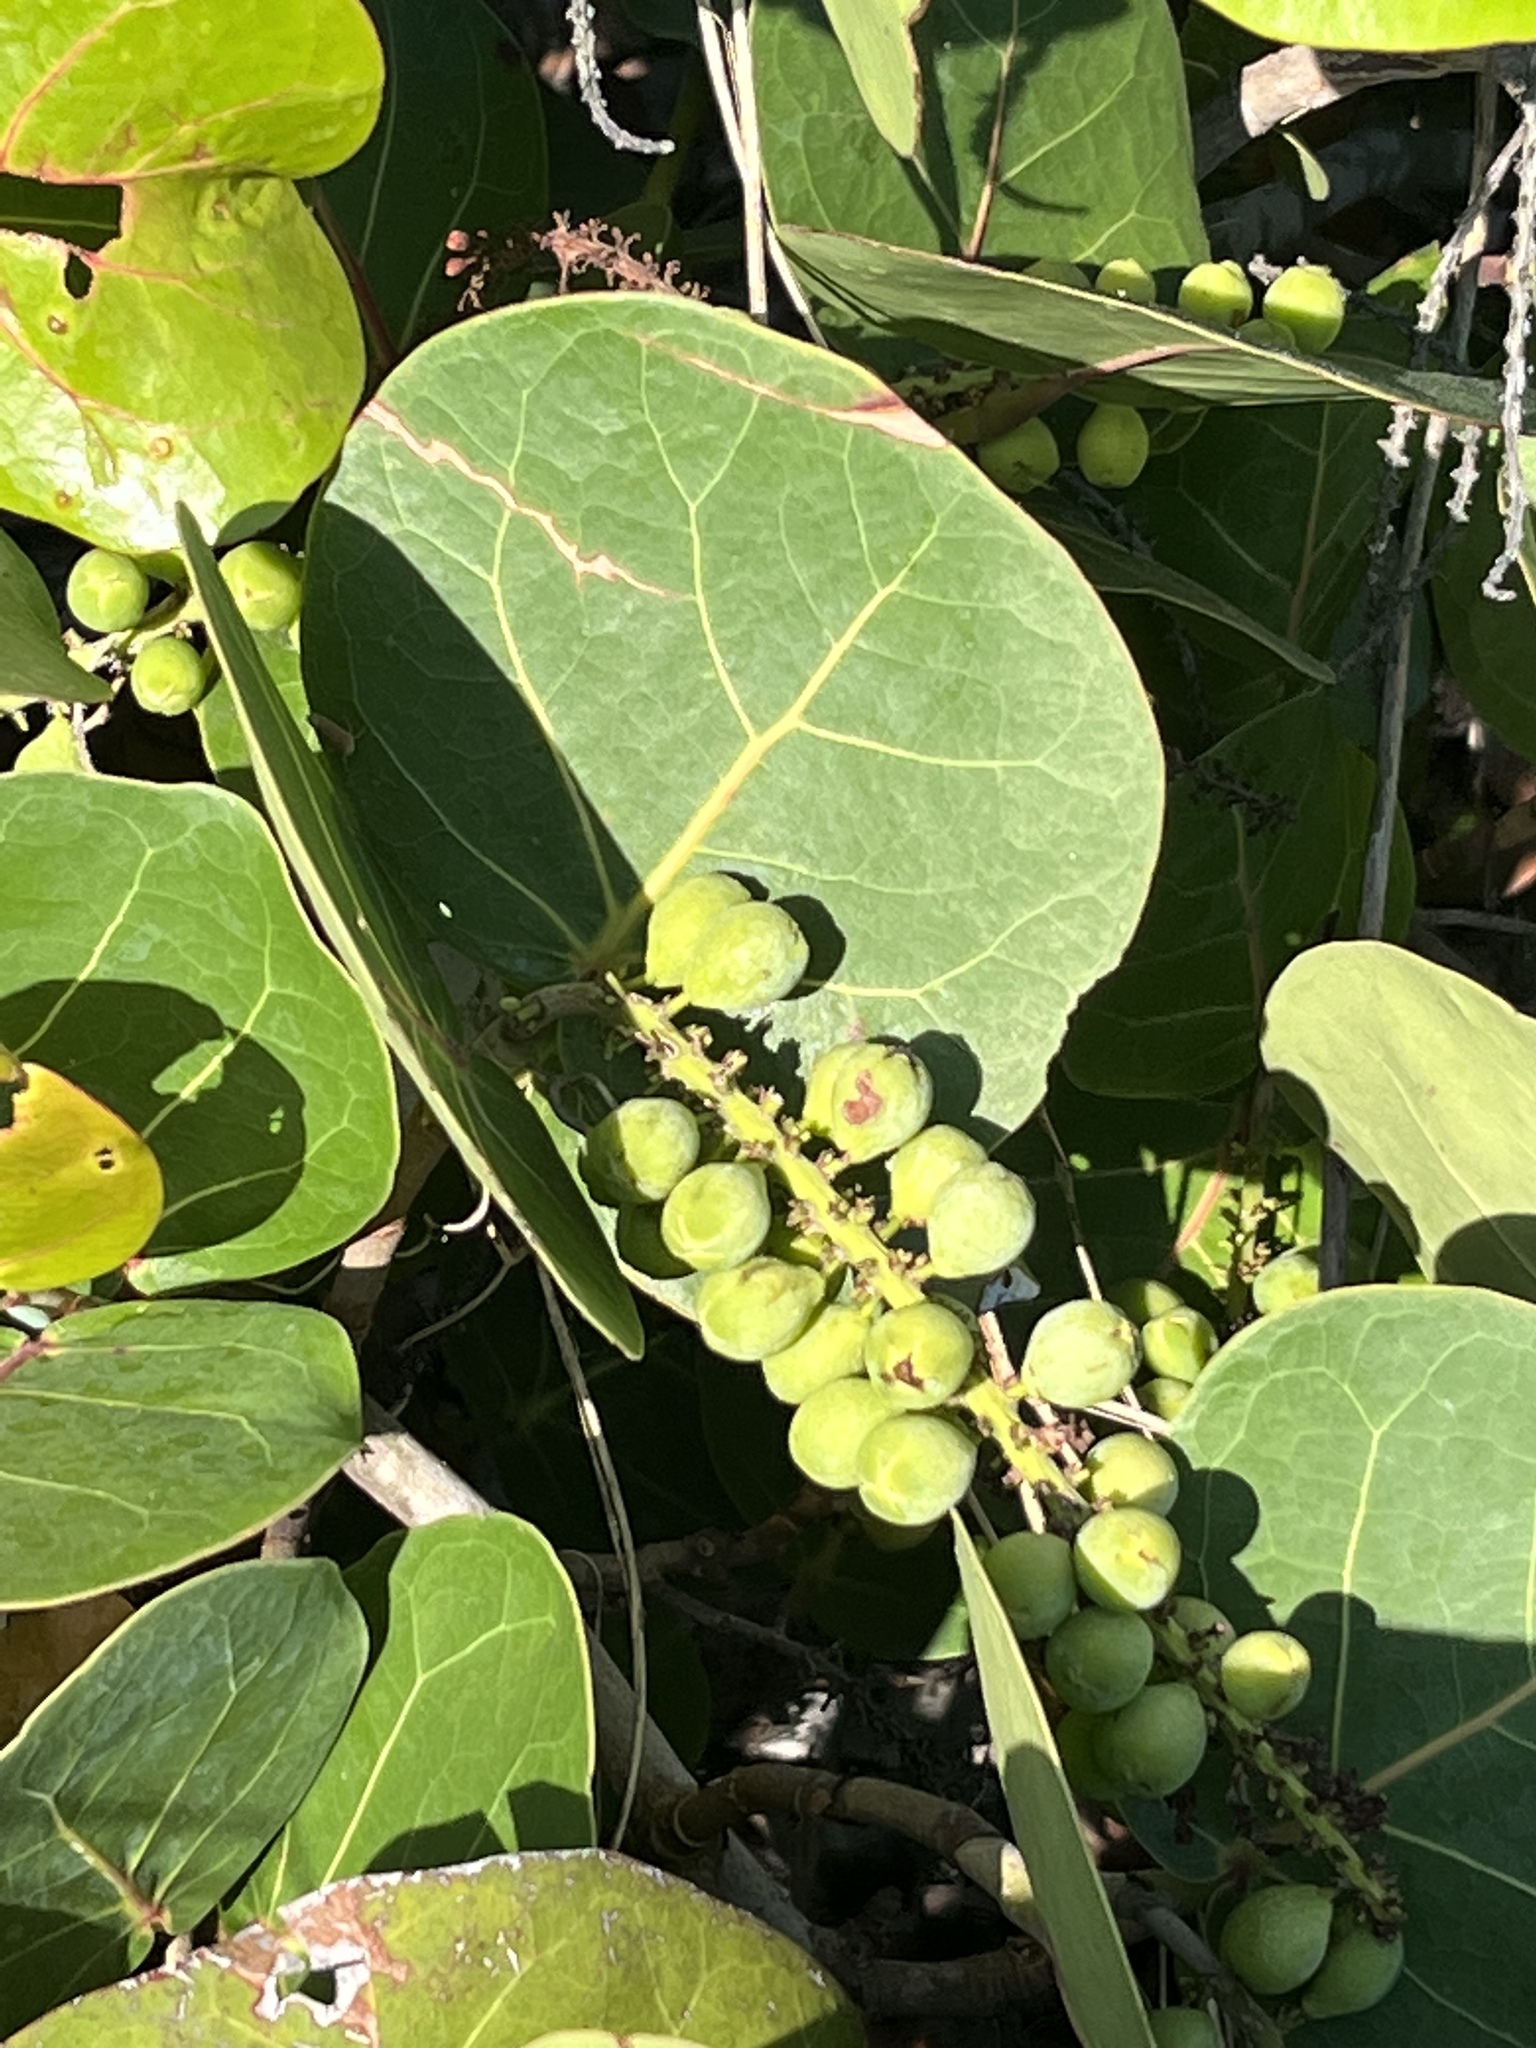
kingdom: Plantae
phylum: Tracheophyta
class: Magnoliopsida
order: Caryophyllales
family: Polygonaceae
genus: Coccoloba
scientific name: Coccoloba uvifera
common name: Seagrape
